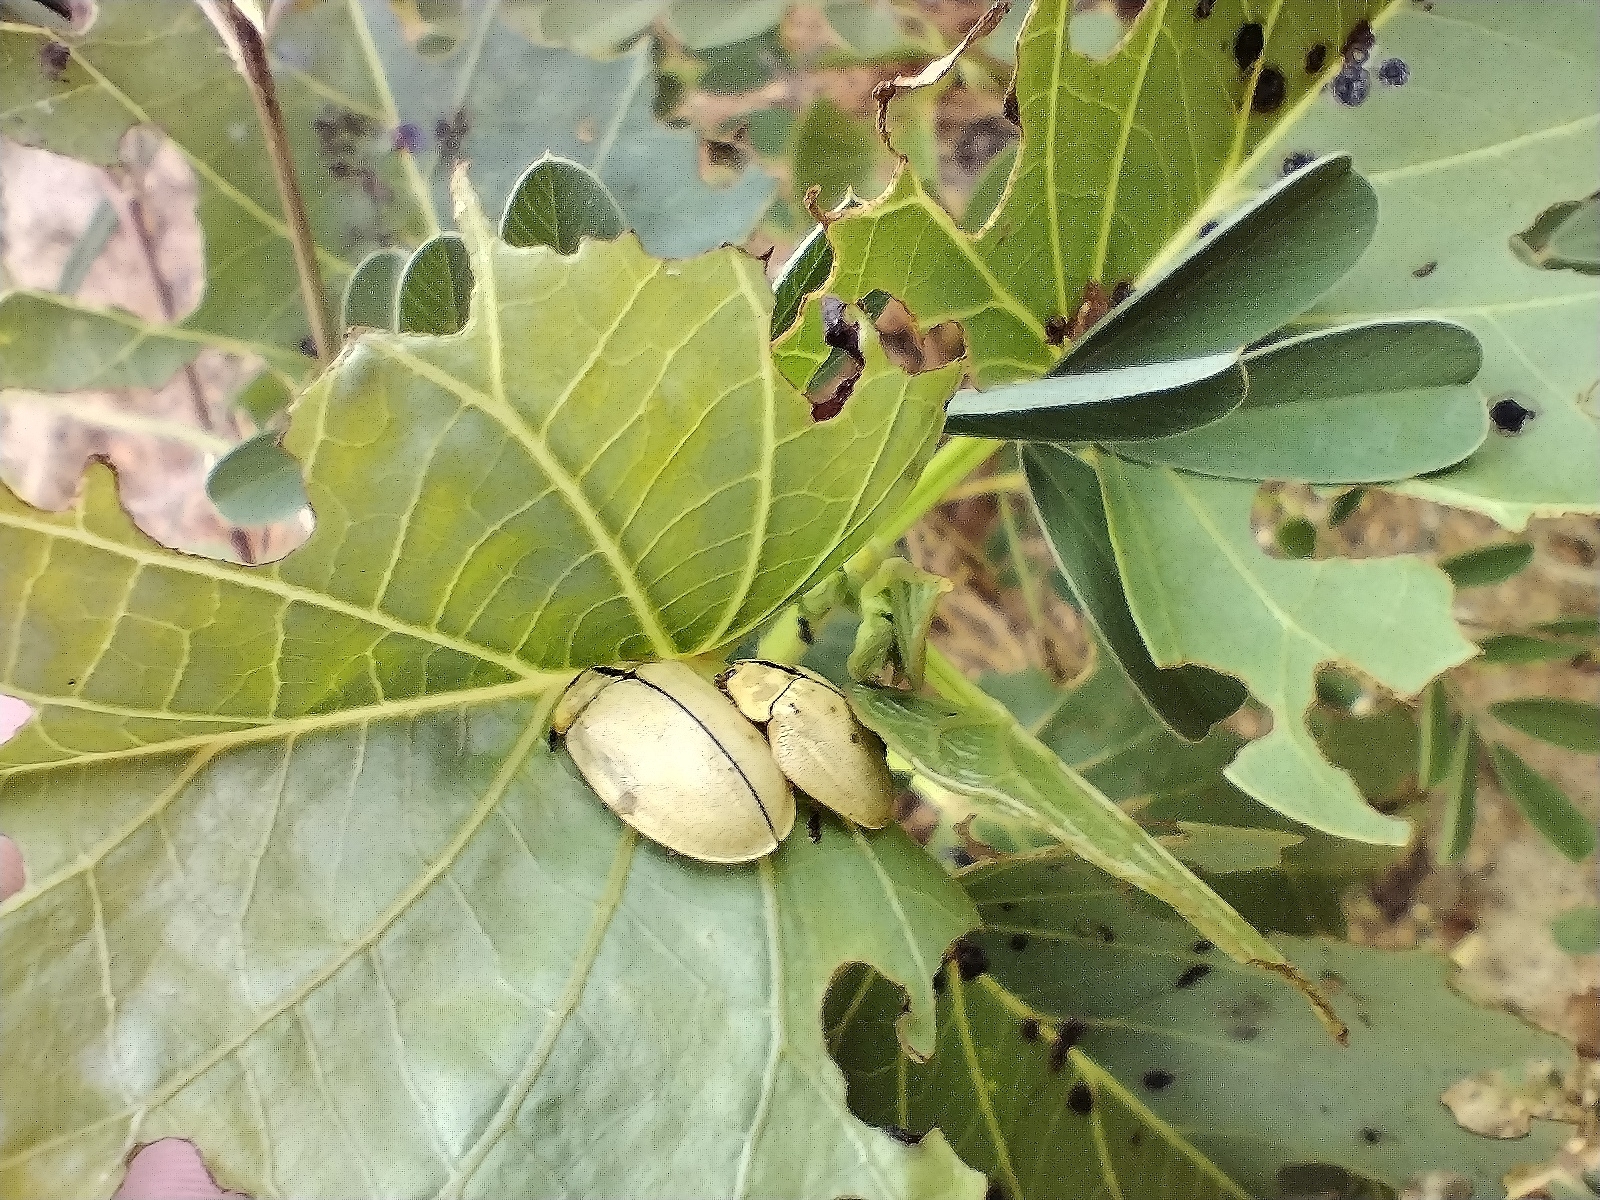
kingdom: Animalia
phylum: Arthropoda
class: Insecta
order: Coleoptera
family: Chrysomelidae
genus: Zatrephina
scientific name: Zatrephina lineata
